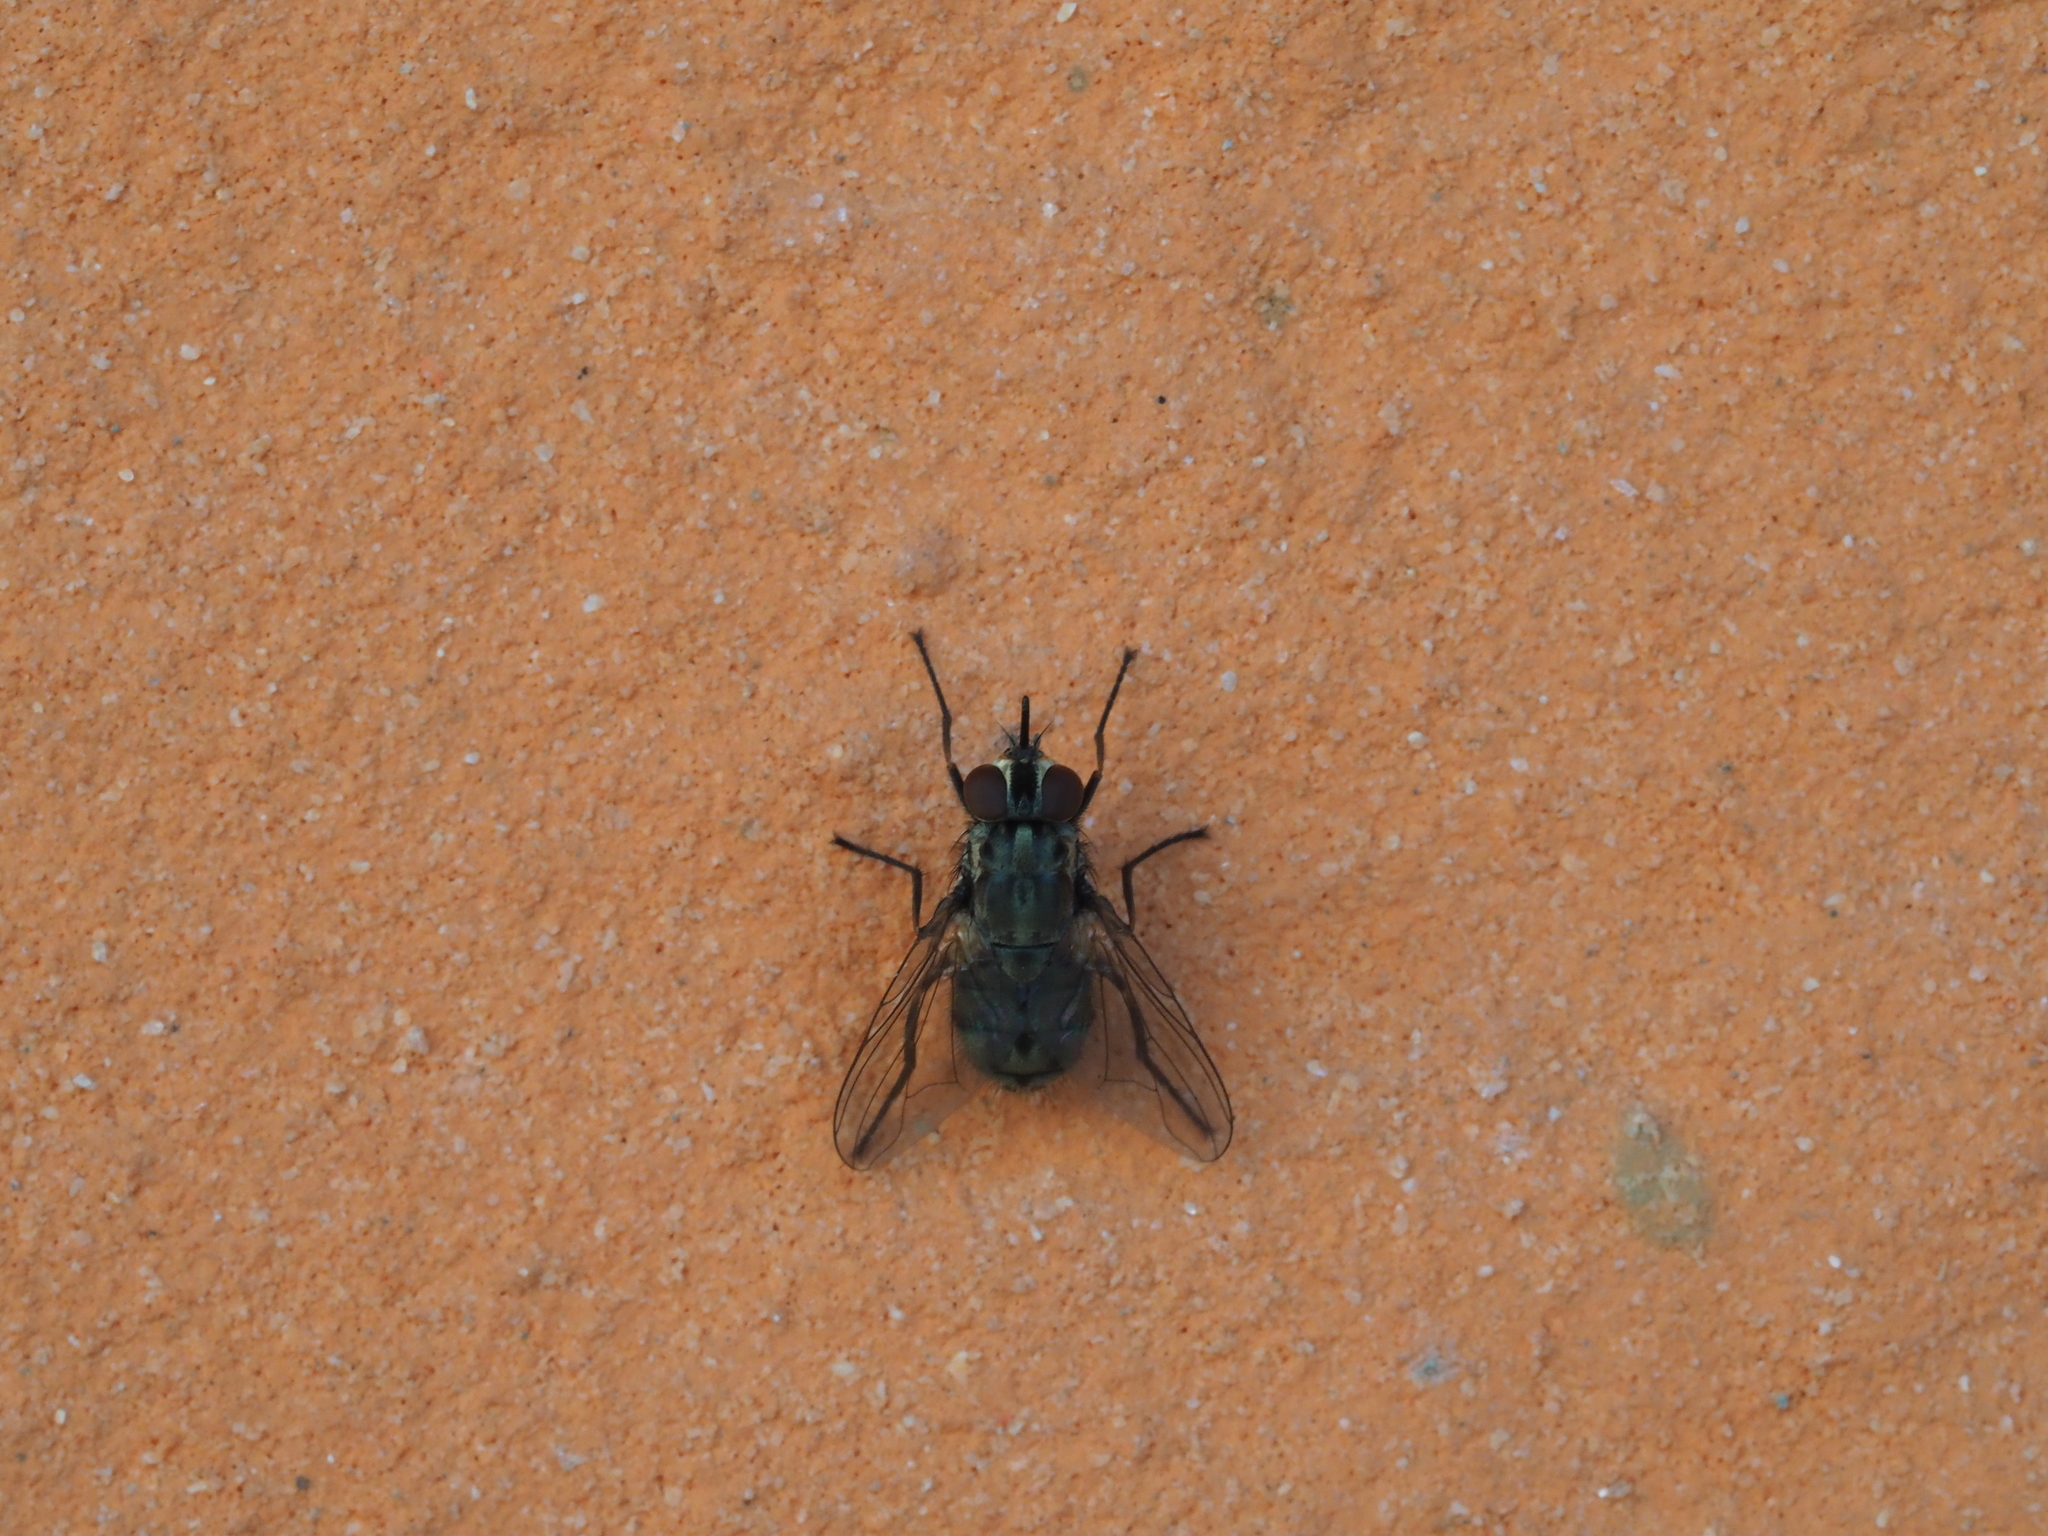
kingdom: Animalia
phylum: Arthropoda
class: Insecta
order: Diptera
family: Muscidae
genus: Stomoxys
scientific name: Stomoxys calcitrans
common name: Stable fly
